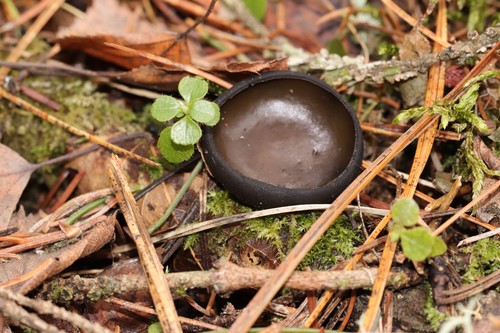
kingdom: Fungi
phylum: Ascomycota
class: Pezizomycetes
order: Pezizales
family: Sarcosomataceae
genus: Pseudoplectania
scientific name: Pseudoplectania melaena
